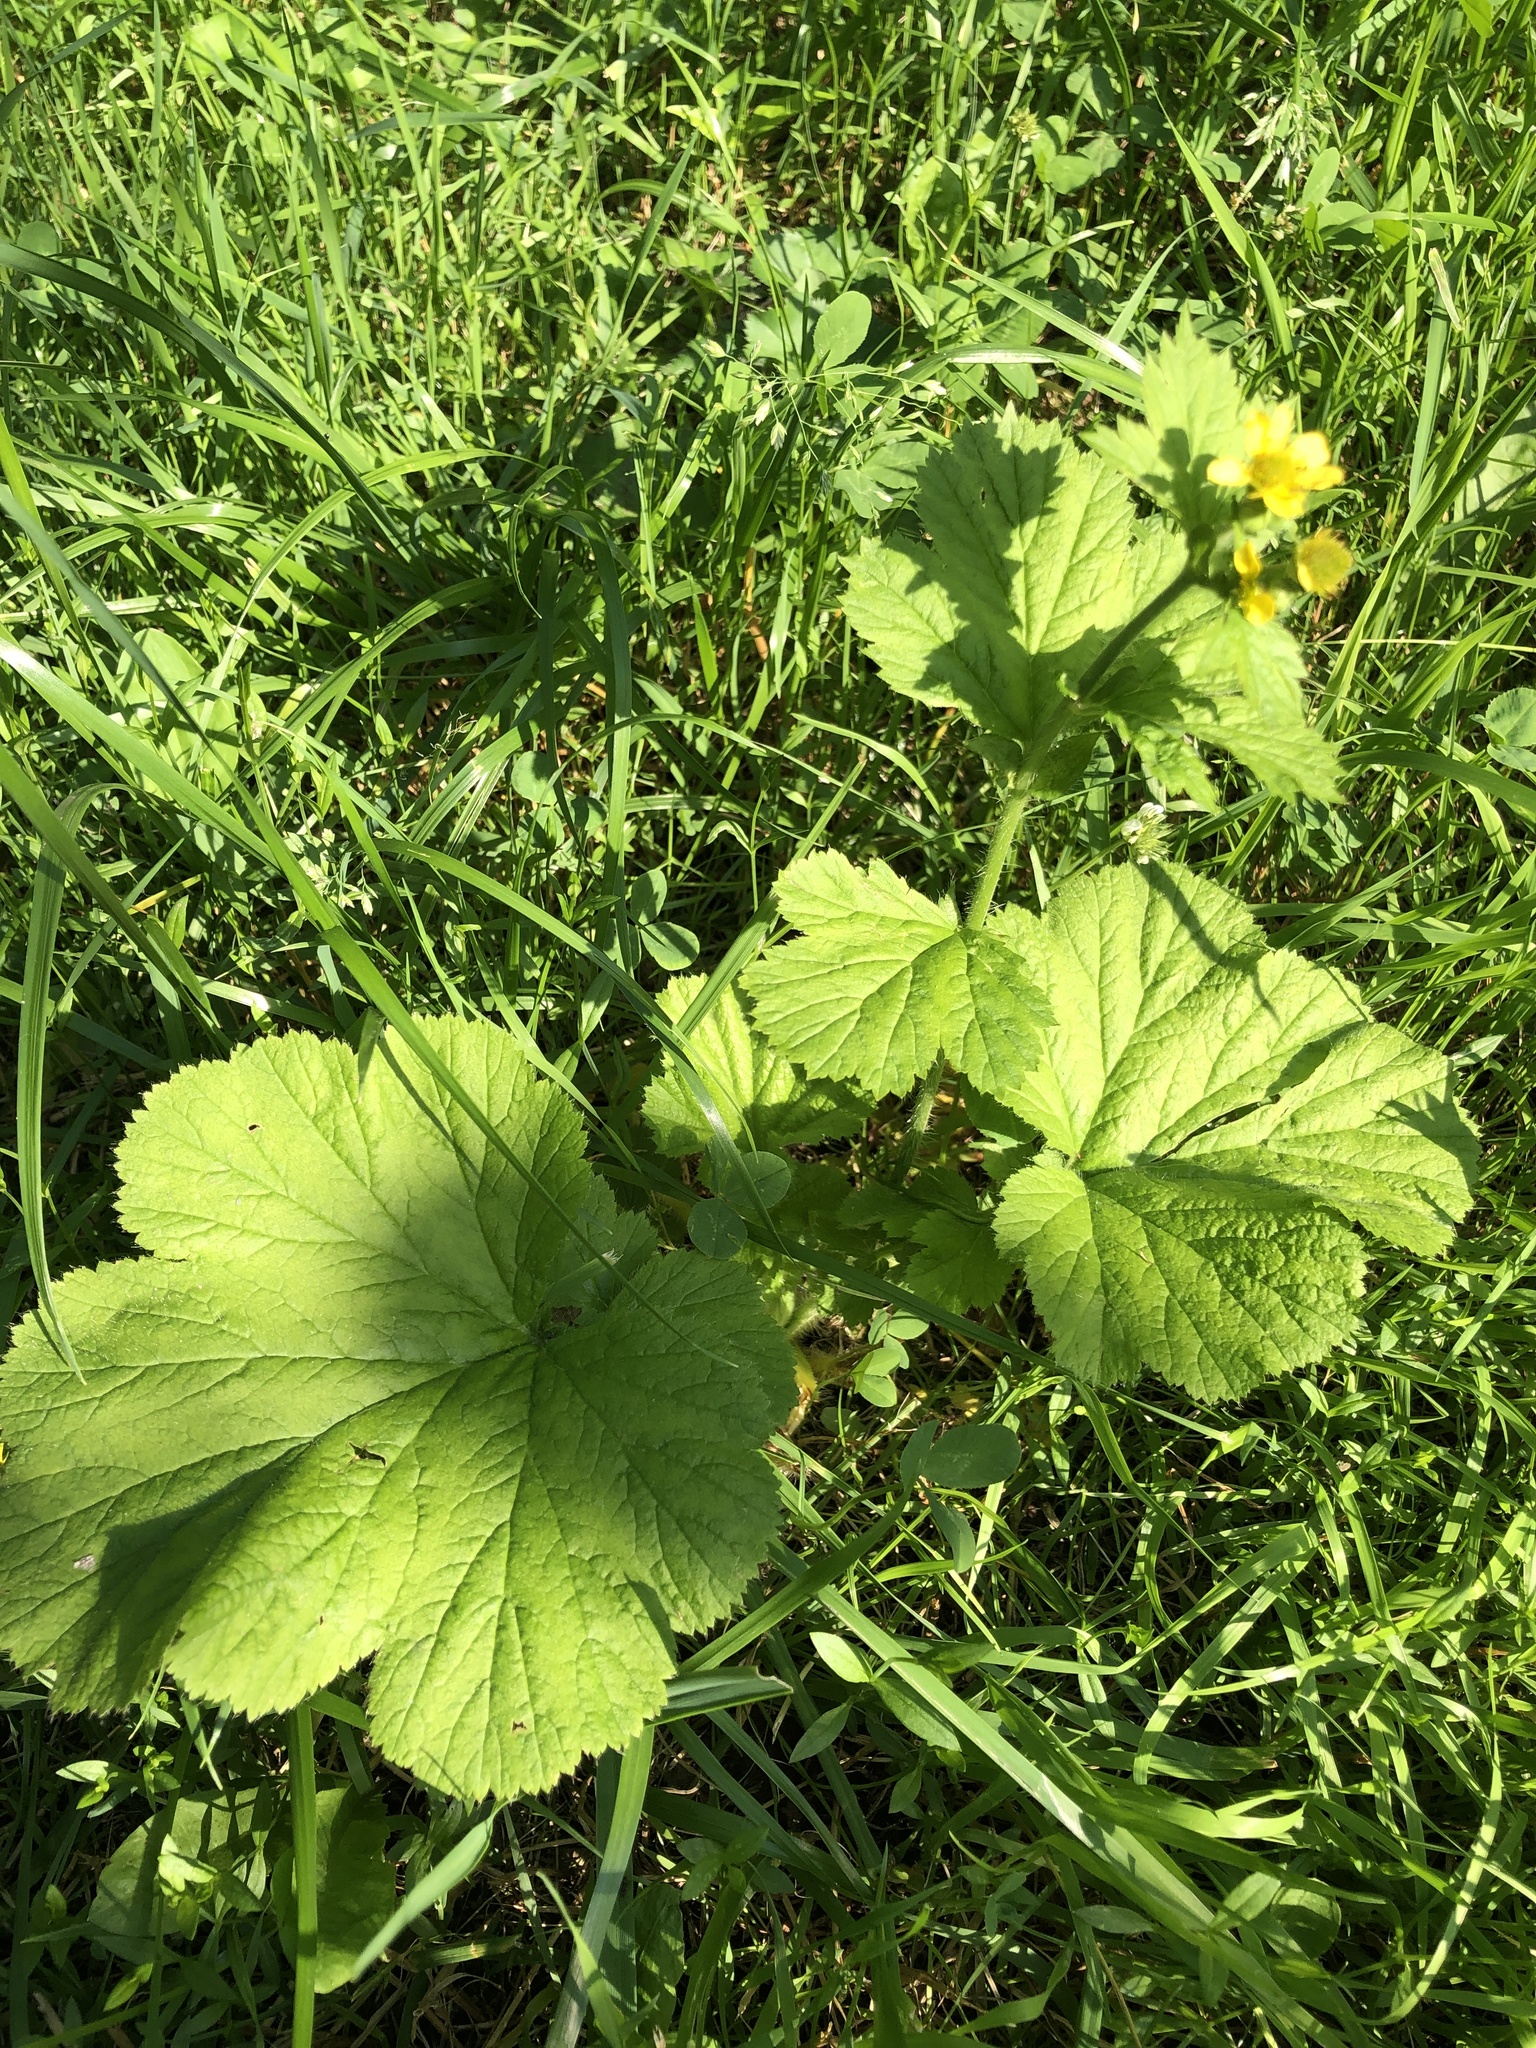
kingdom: Plantae
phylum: Tracheophyta
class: Magnoliopsida
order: Rosales
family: Rosaceae
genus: Geum
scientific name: Geum macrophyllum
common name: Large-leaved avens
